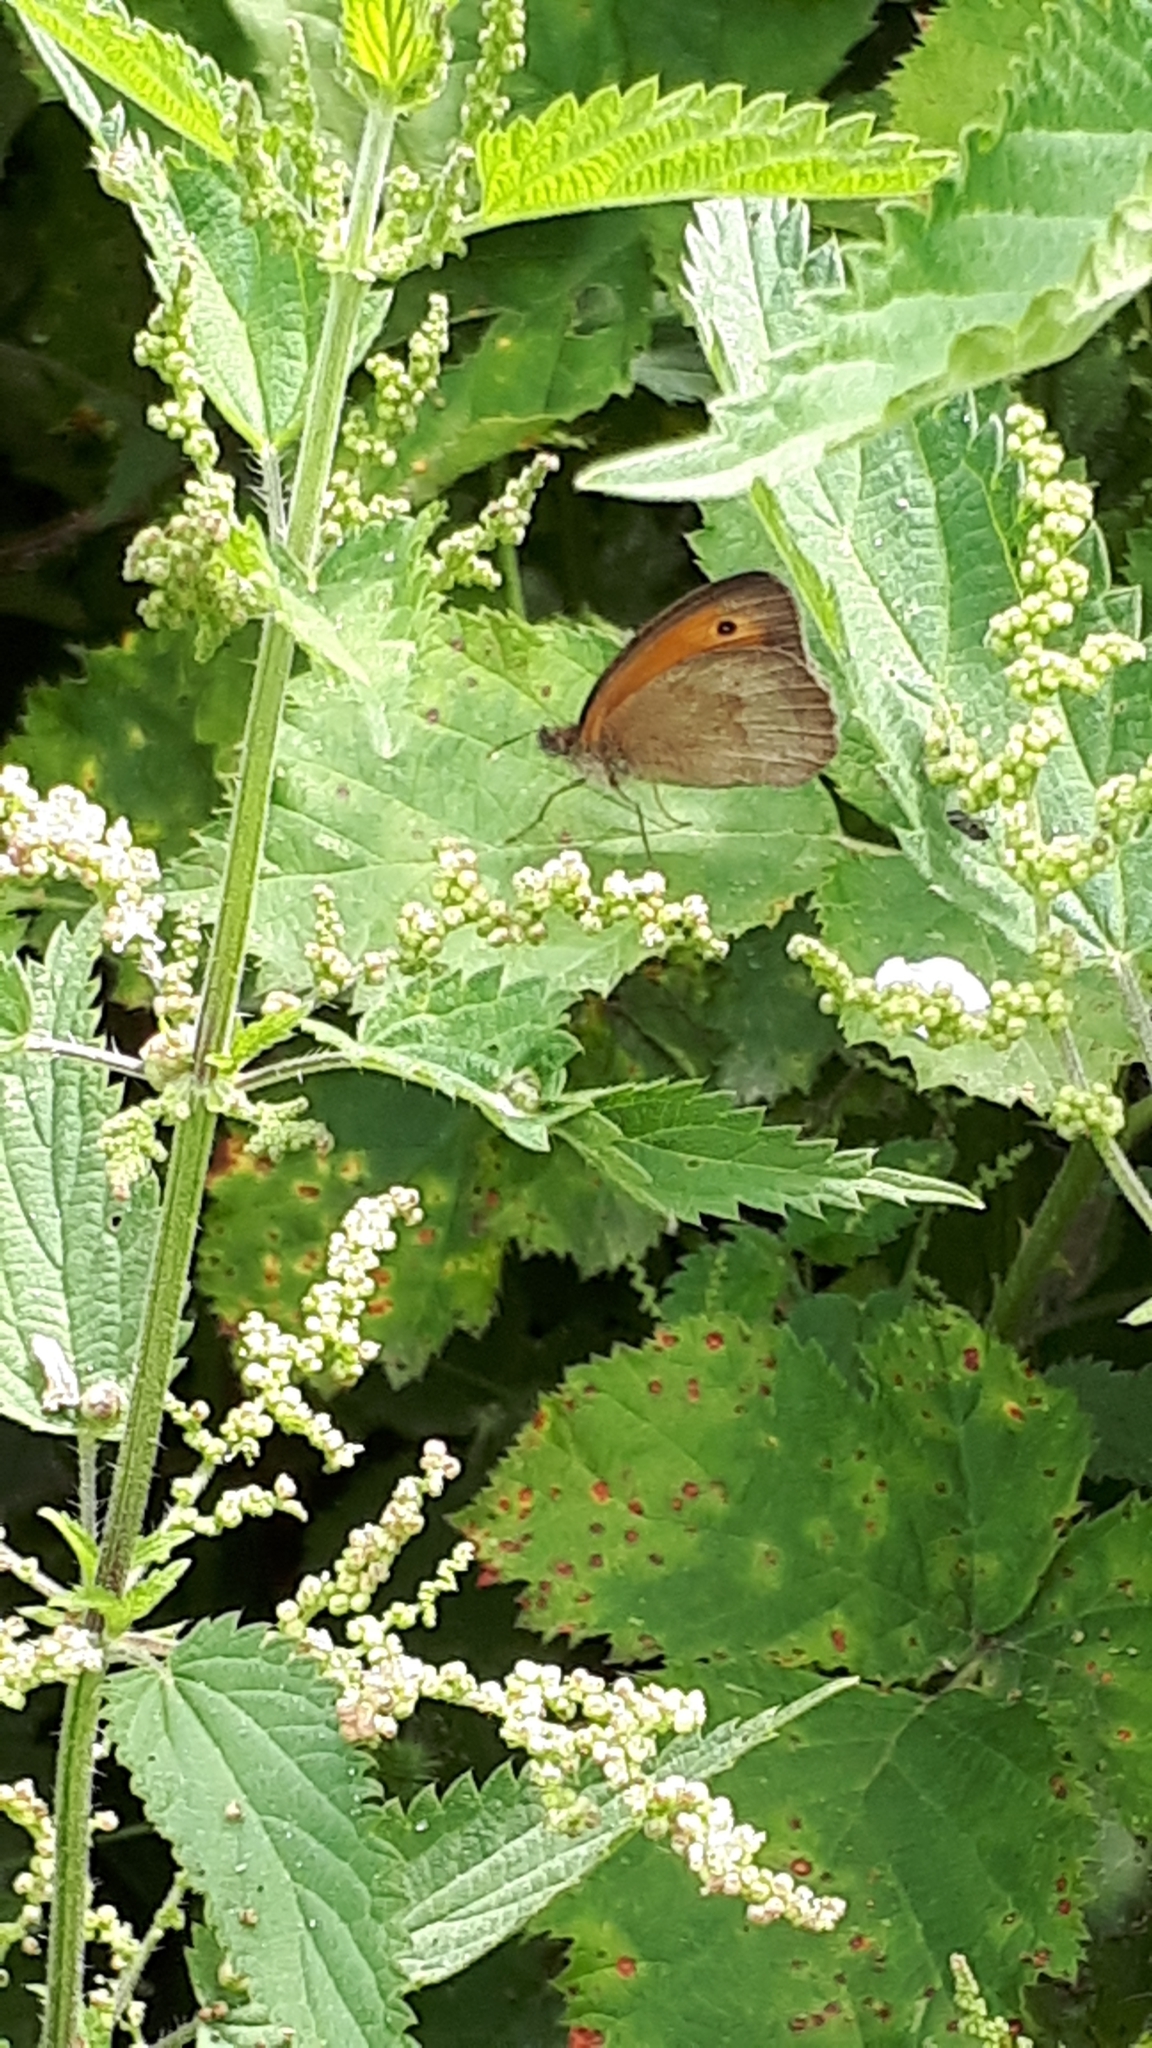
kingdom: Animalia
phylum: Arthropoda
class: Insecta
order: Lepidoptera
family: Nymphalidae
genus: Maniola
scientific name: Maniola jurtina
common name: Meadow brown
